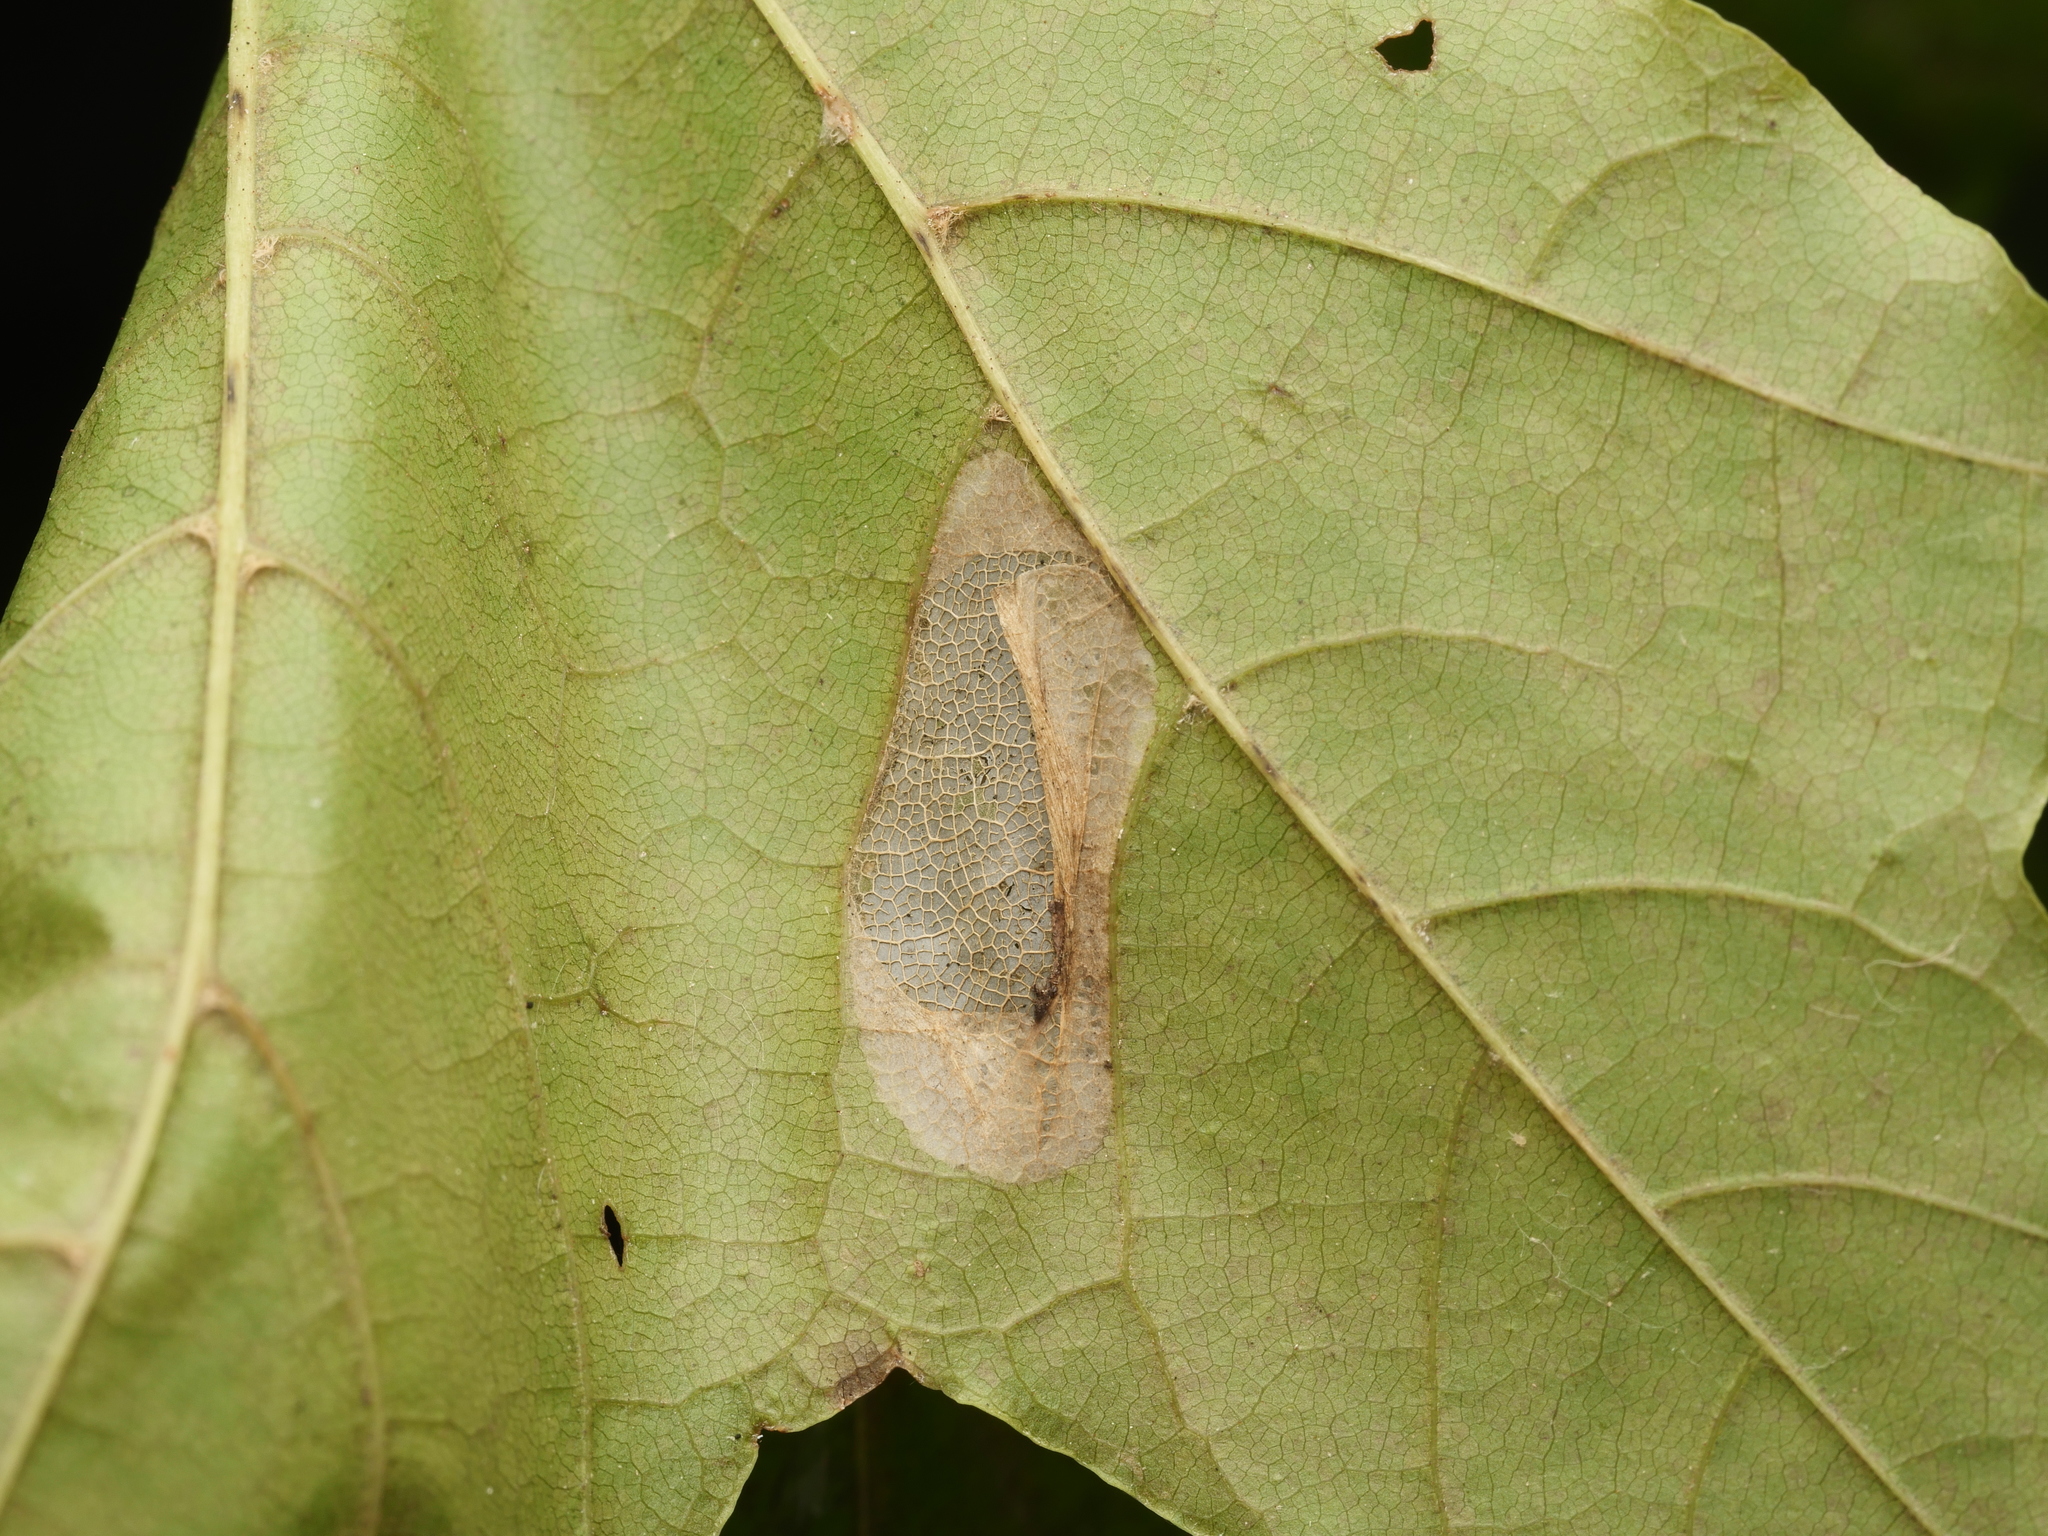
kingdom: Animalia
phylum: Arthropoda
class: Insecta
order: Lepidoptera
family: Gracillariidae
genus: Phyllonorycter
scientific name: Phyllonorycter joannisi
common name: White-bodied midget
